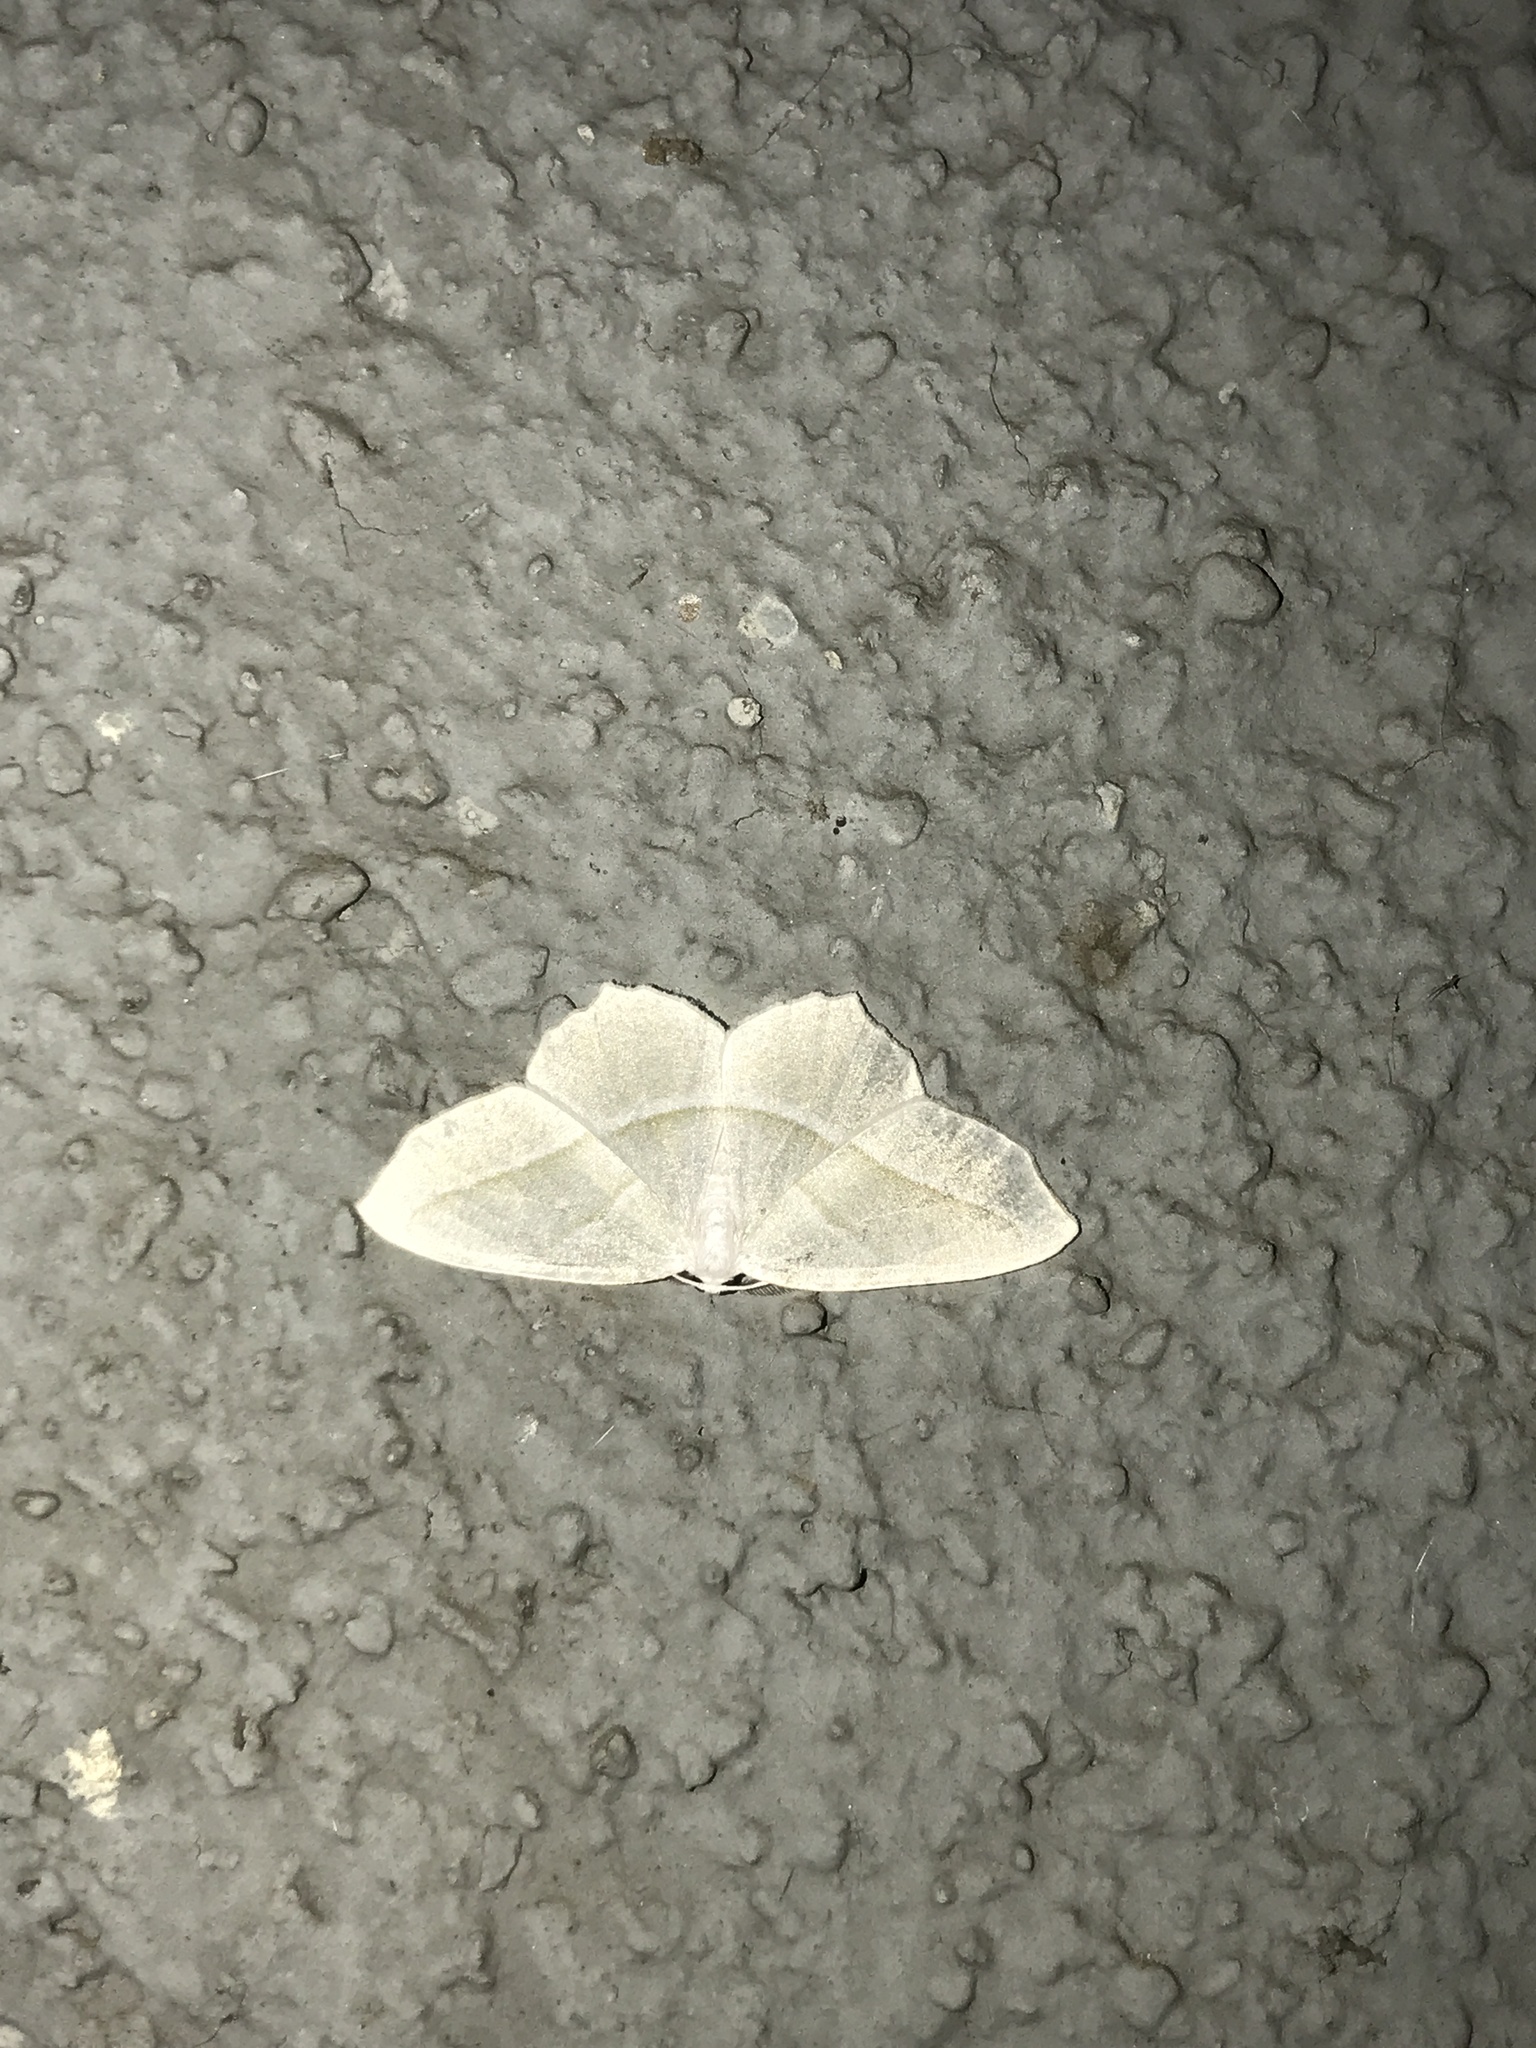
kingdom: Animalia
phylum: Arthropoda
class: Insecta
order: Lepidoptera
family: Geometridae
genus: Campaea
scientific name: Campaea perlata
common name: Fringed looper
